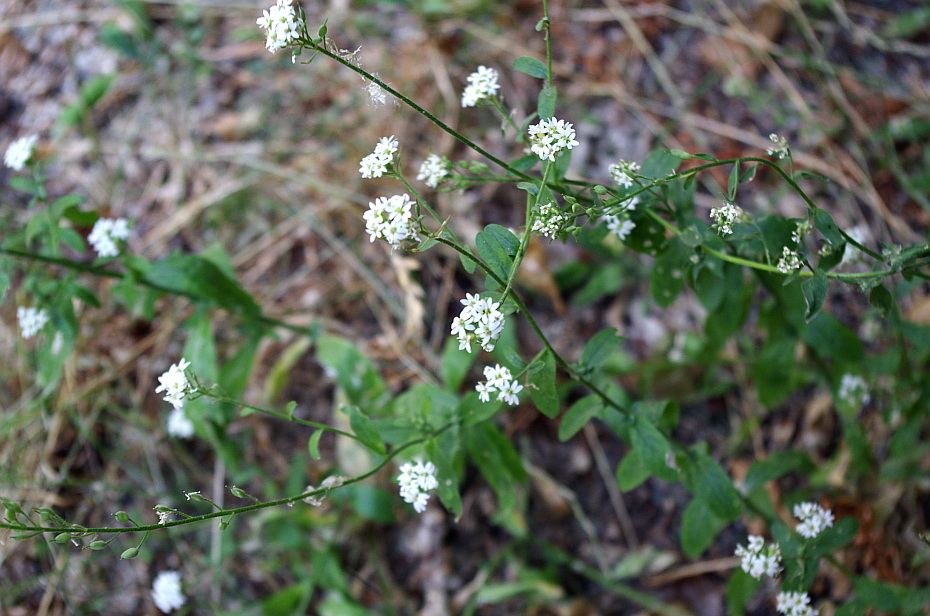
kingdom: Plantae
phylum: Tracheophyta
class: Magnoliopsida
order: Brassicales
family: Brassicaceae
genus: Berteroa
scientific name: Berteroa incana
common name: Hoary alison
